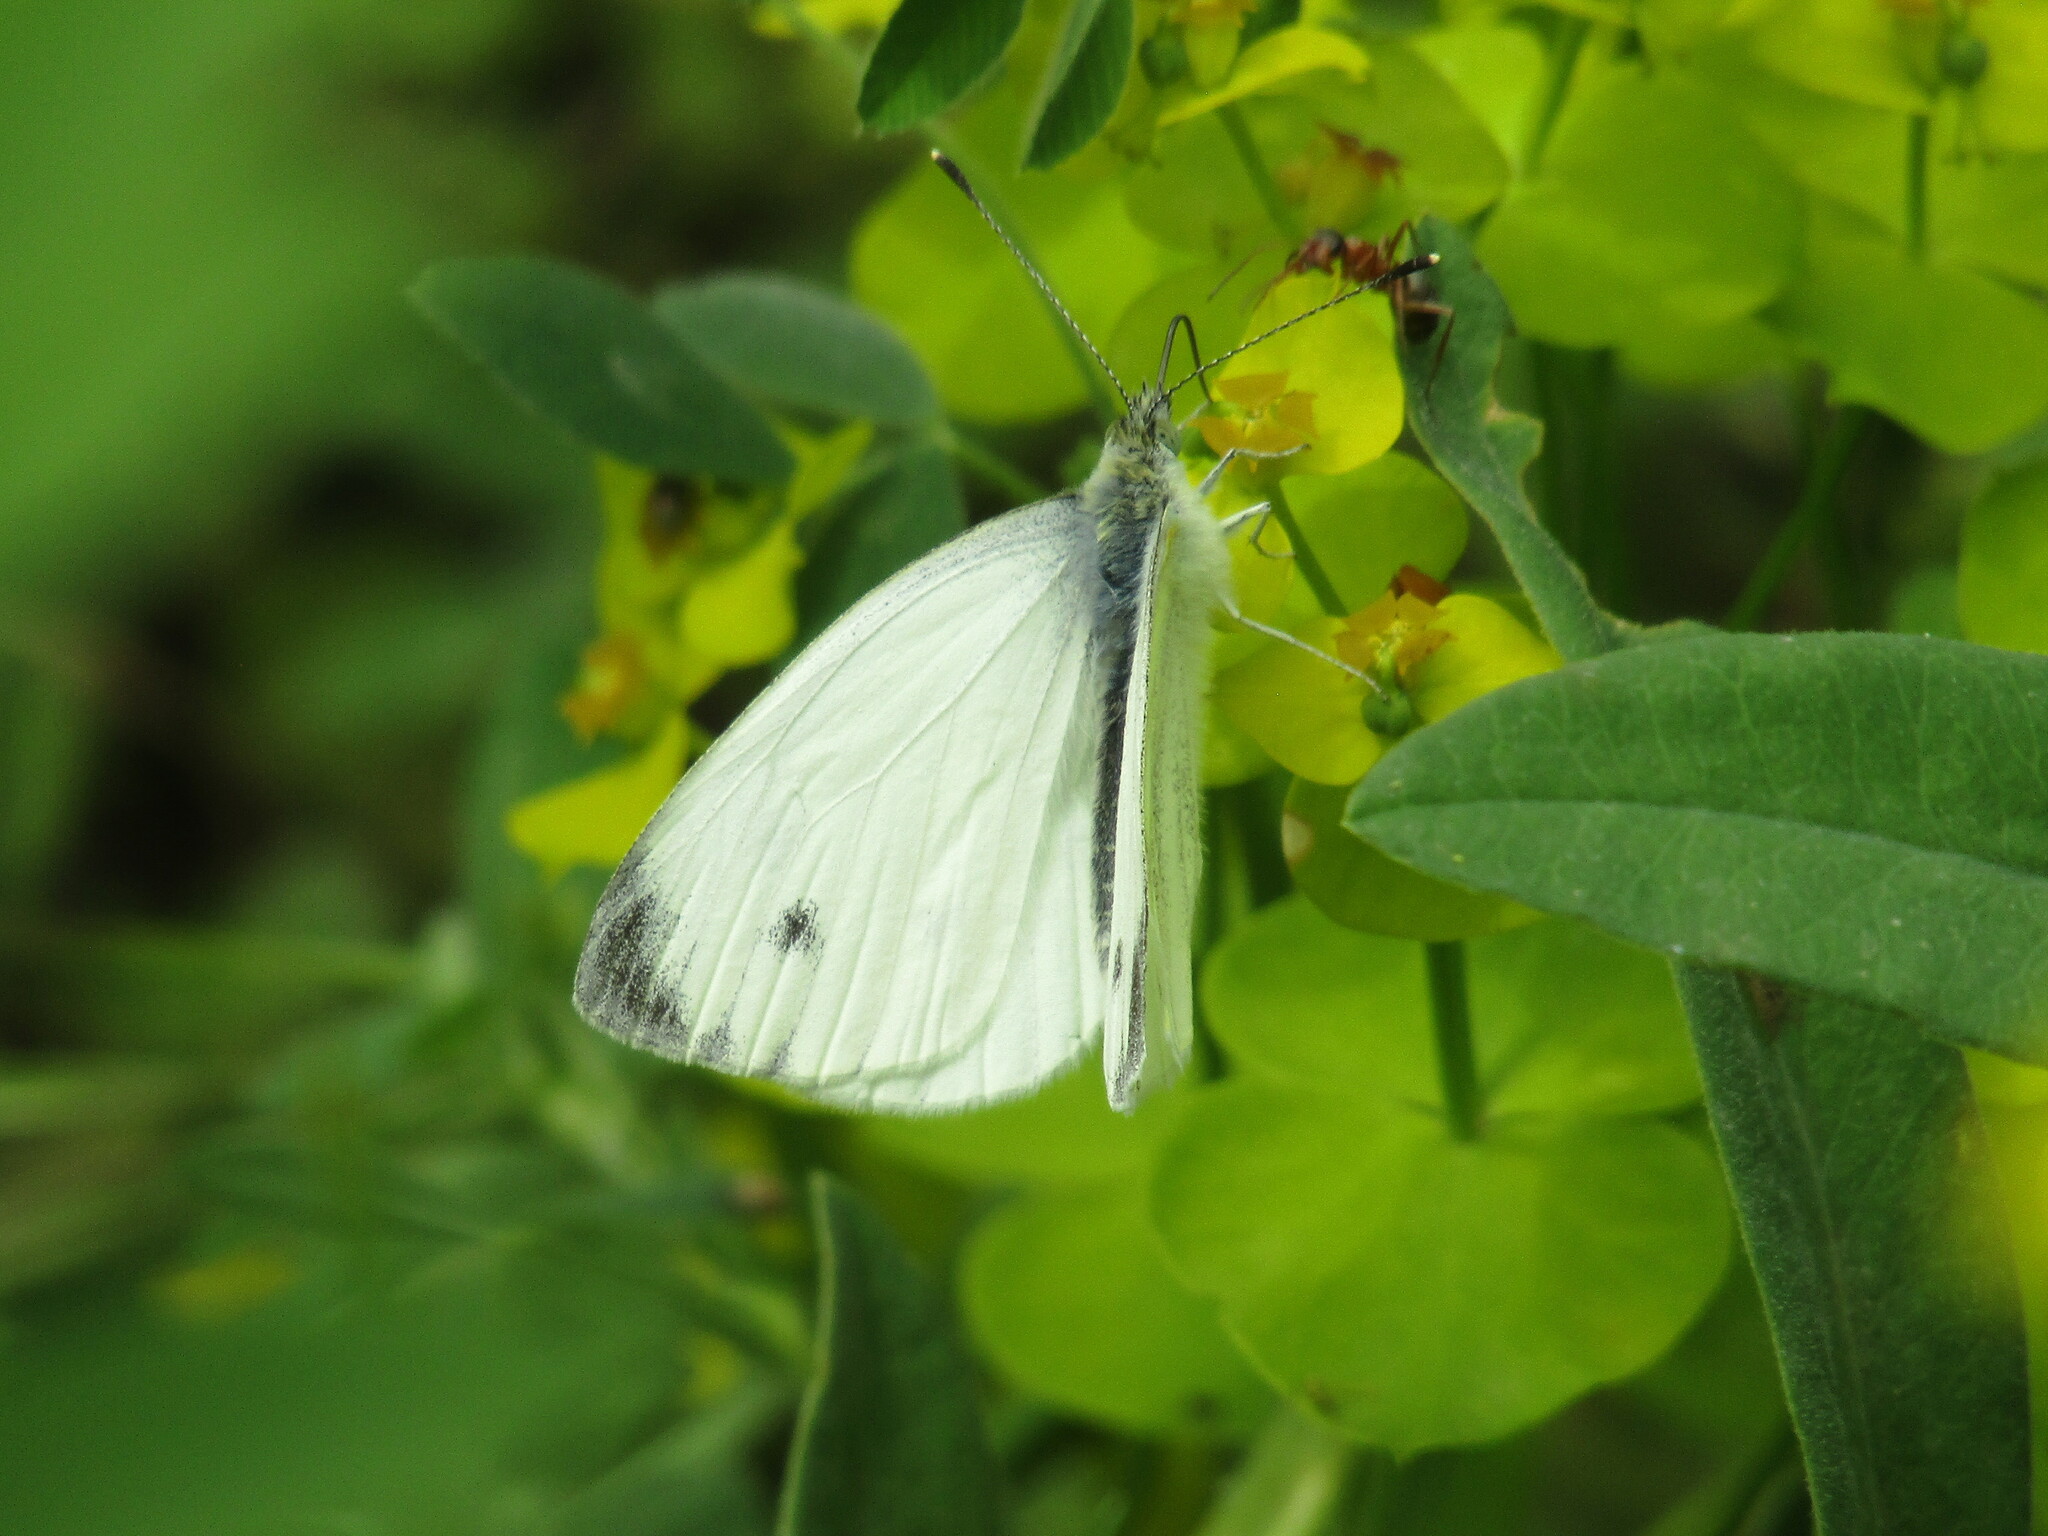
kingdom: Animalia
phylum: Arthropoda
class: Insecta
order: Lepidoptera
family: Pieridae
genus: Pieris
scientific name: Pieris napi
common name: Green-veined white
